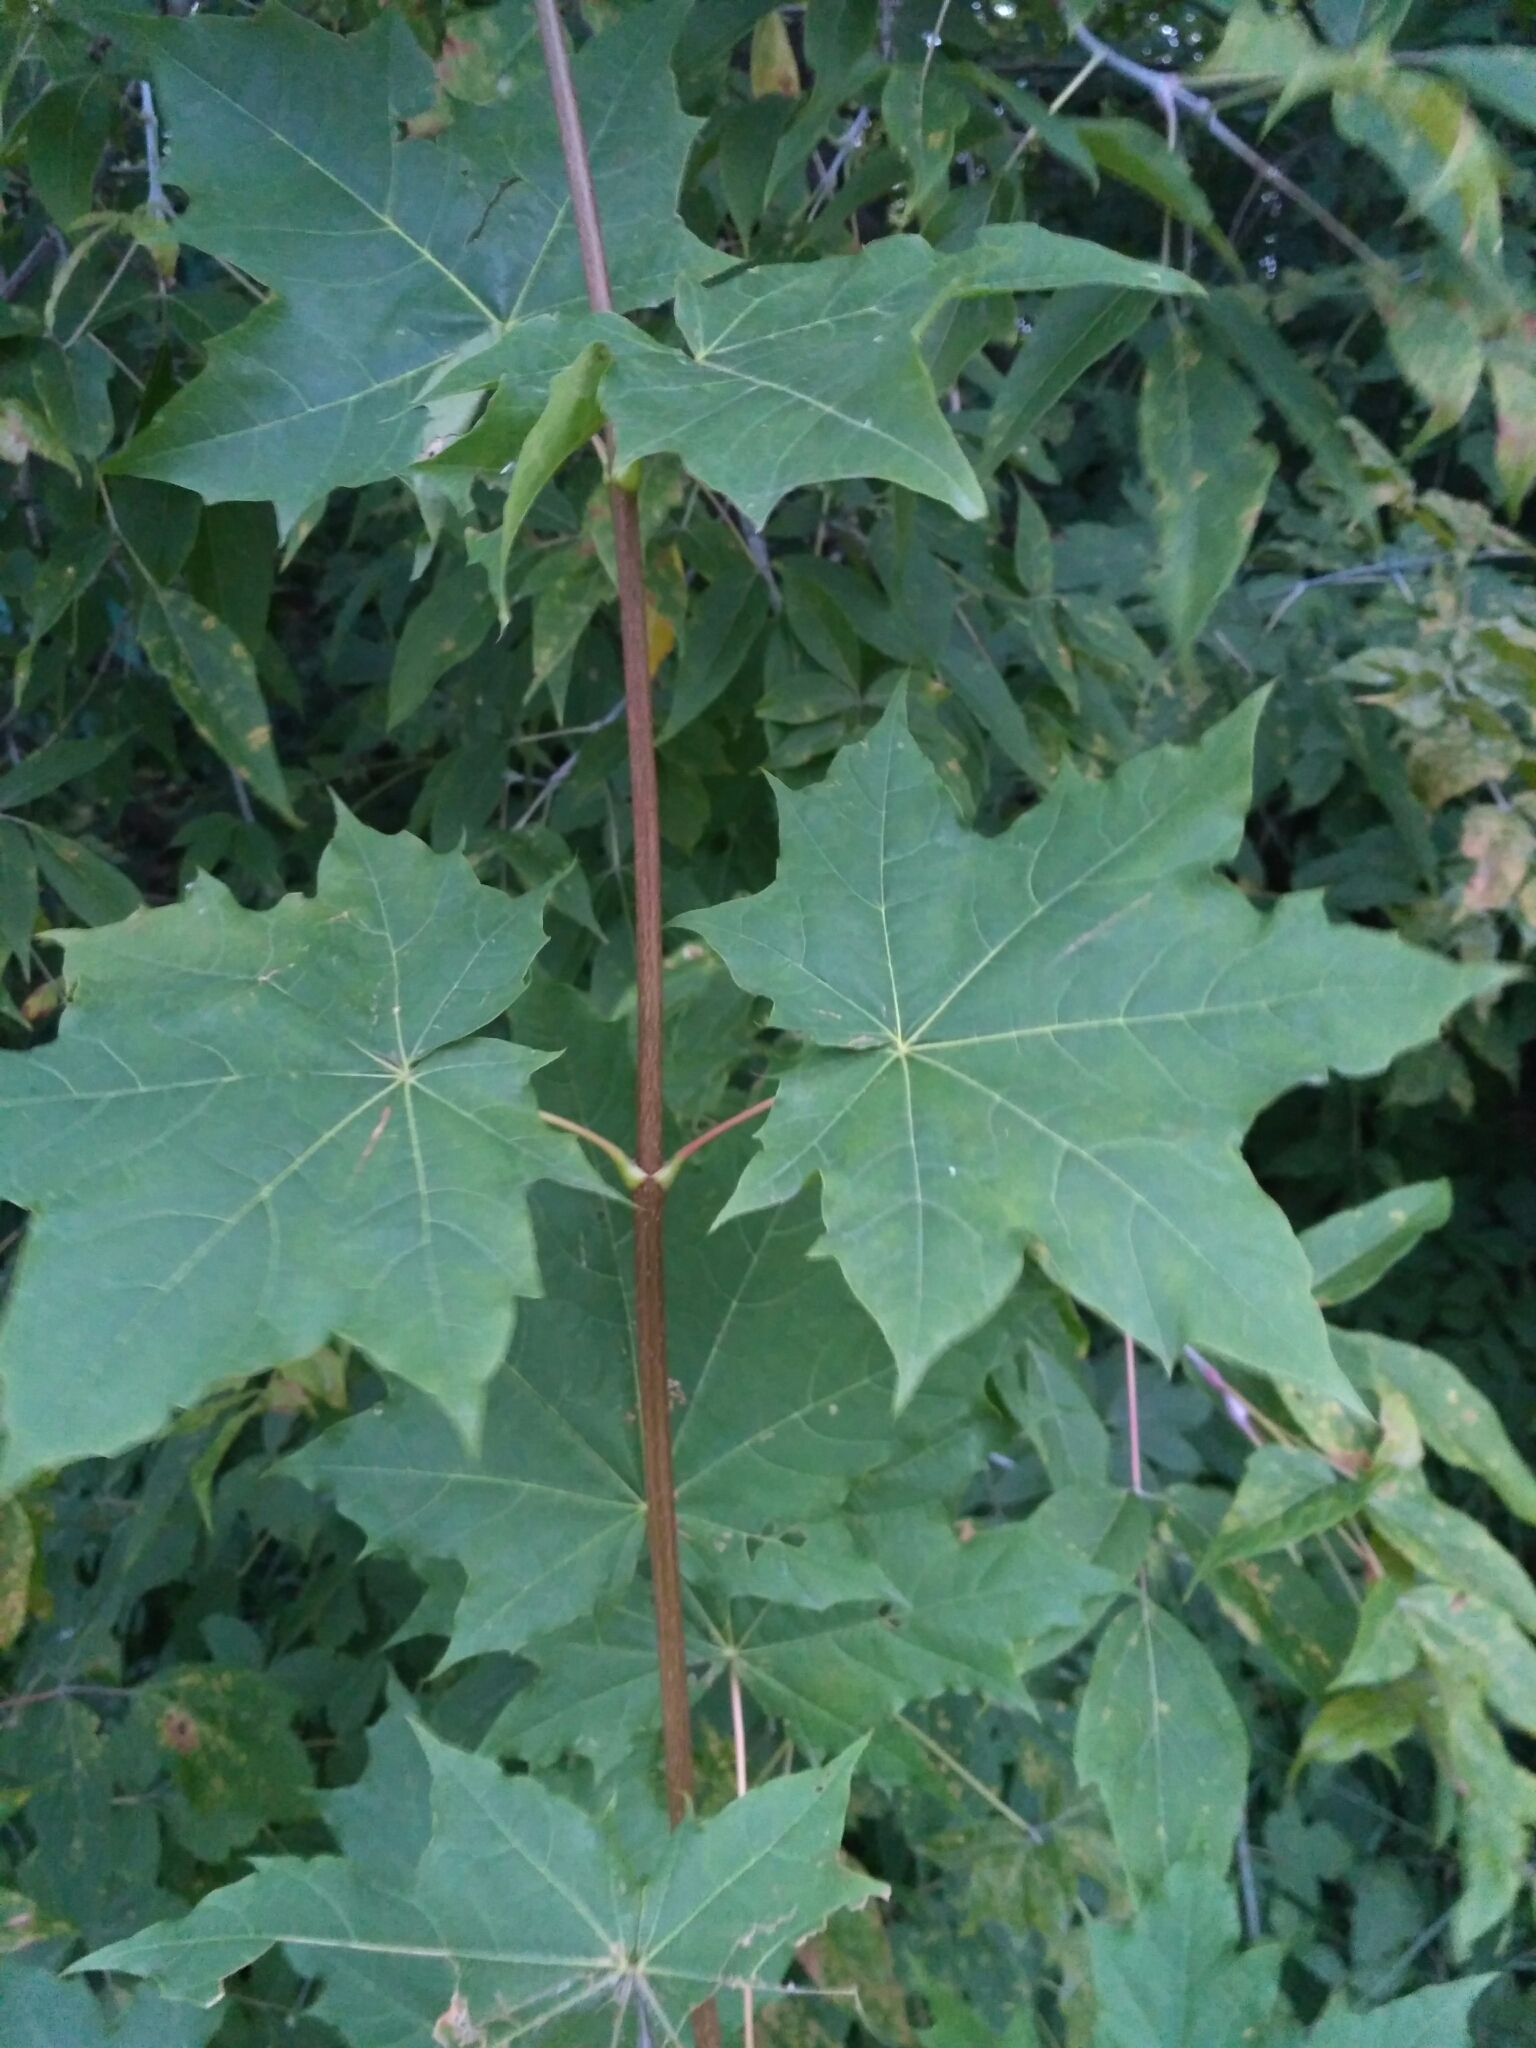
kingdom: Plantae
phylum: Tracheophyta
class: Magnoliopsida
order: Sapindales
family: Sapindaceae
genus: Acer
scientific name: Acer platanoides
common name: Norway maple
